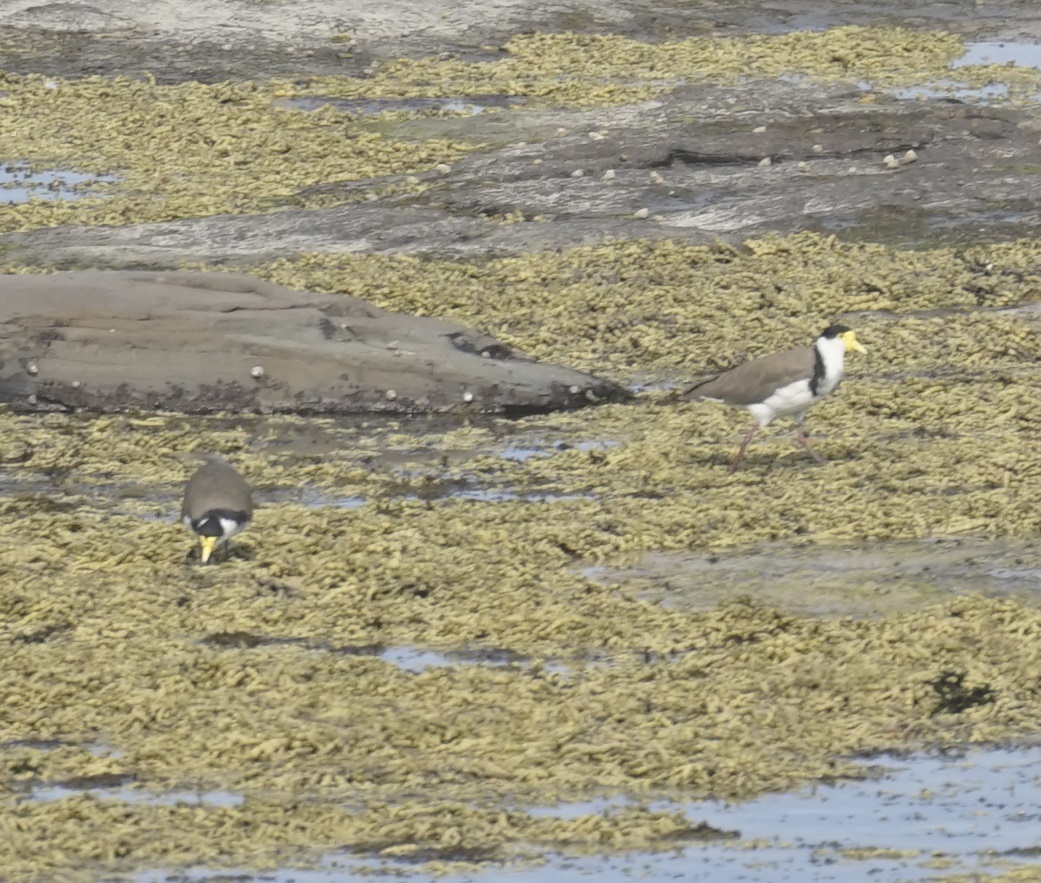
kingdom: Animalia
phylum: Chordata
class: Aves
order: Charadriiformes
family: Charadriidae
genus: Vanellus
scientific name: Vanellus miles
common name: Masked lapwing
